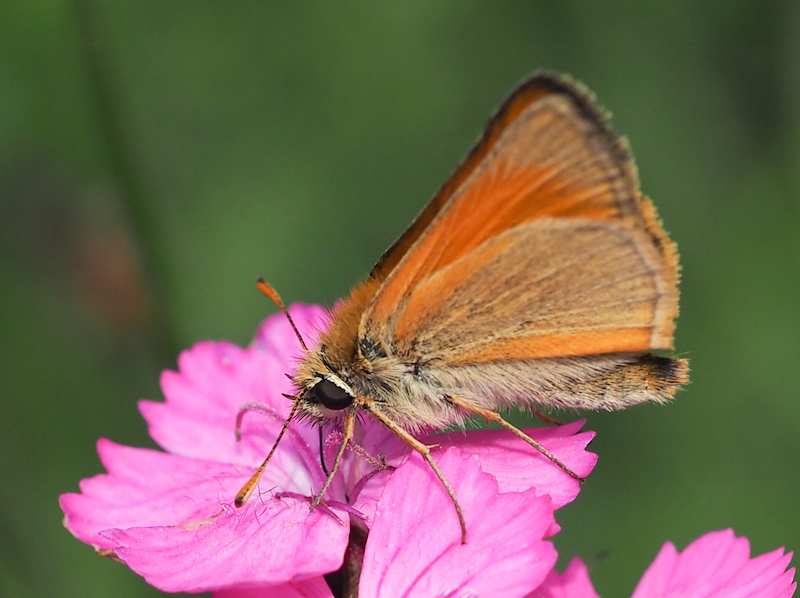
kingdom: Animalia
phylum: Arthropoda
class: Insecta
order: Lepidoptera
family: Hesperiidae
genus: Thymelicus
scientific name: Thymelicus sylvestris
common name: Small skipper
